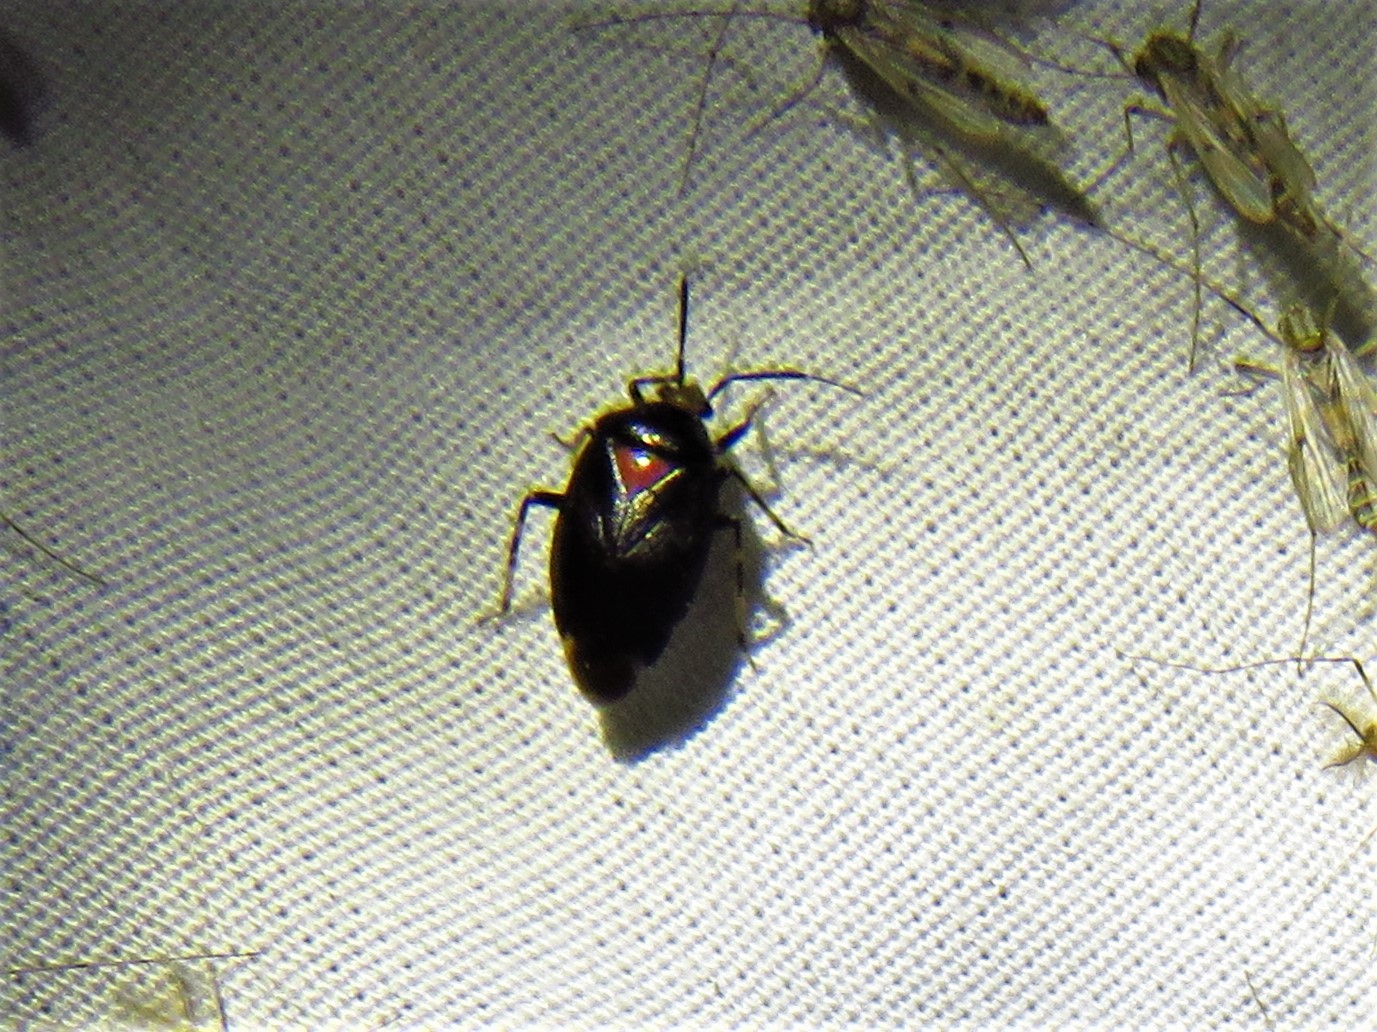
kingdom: Animalia
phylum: Arthropoda
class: Insecta
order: Hemiptera
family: Miridae
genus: Deraeocoris
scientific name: Deraeocoris sayi
